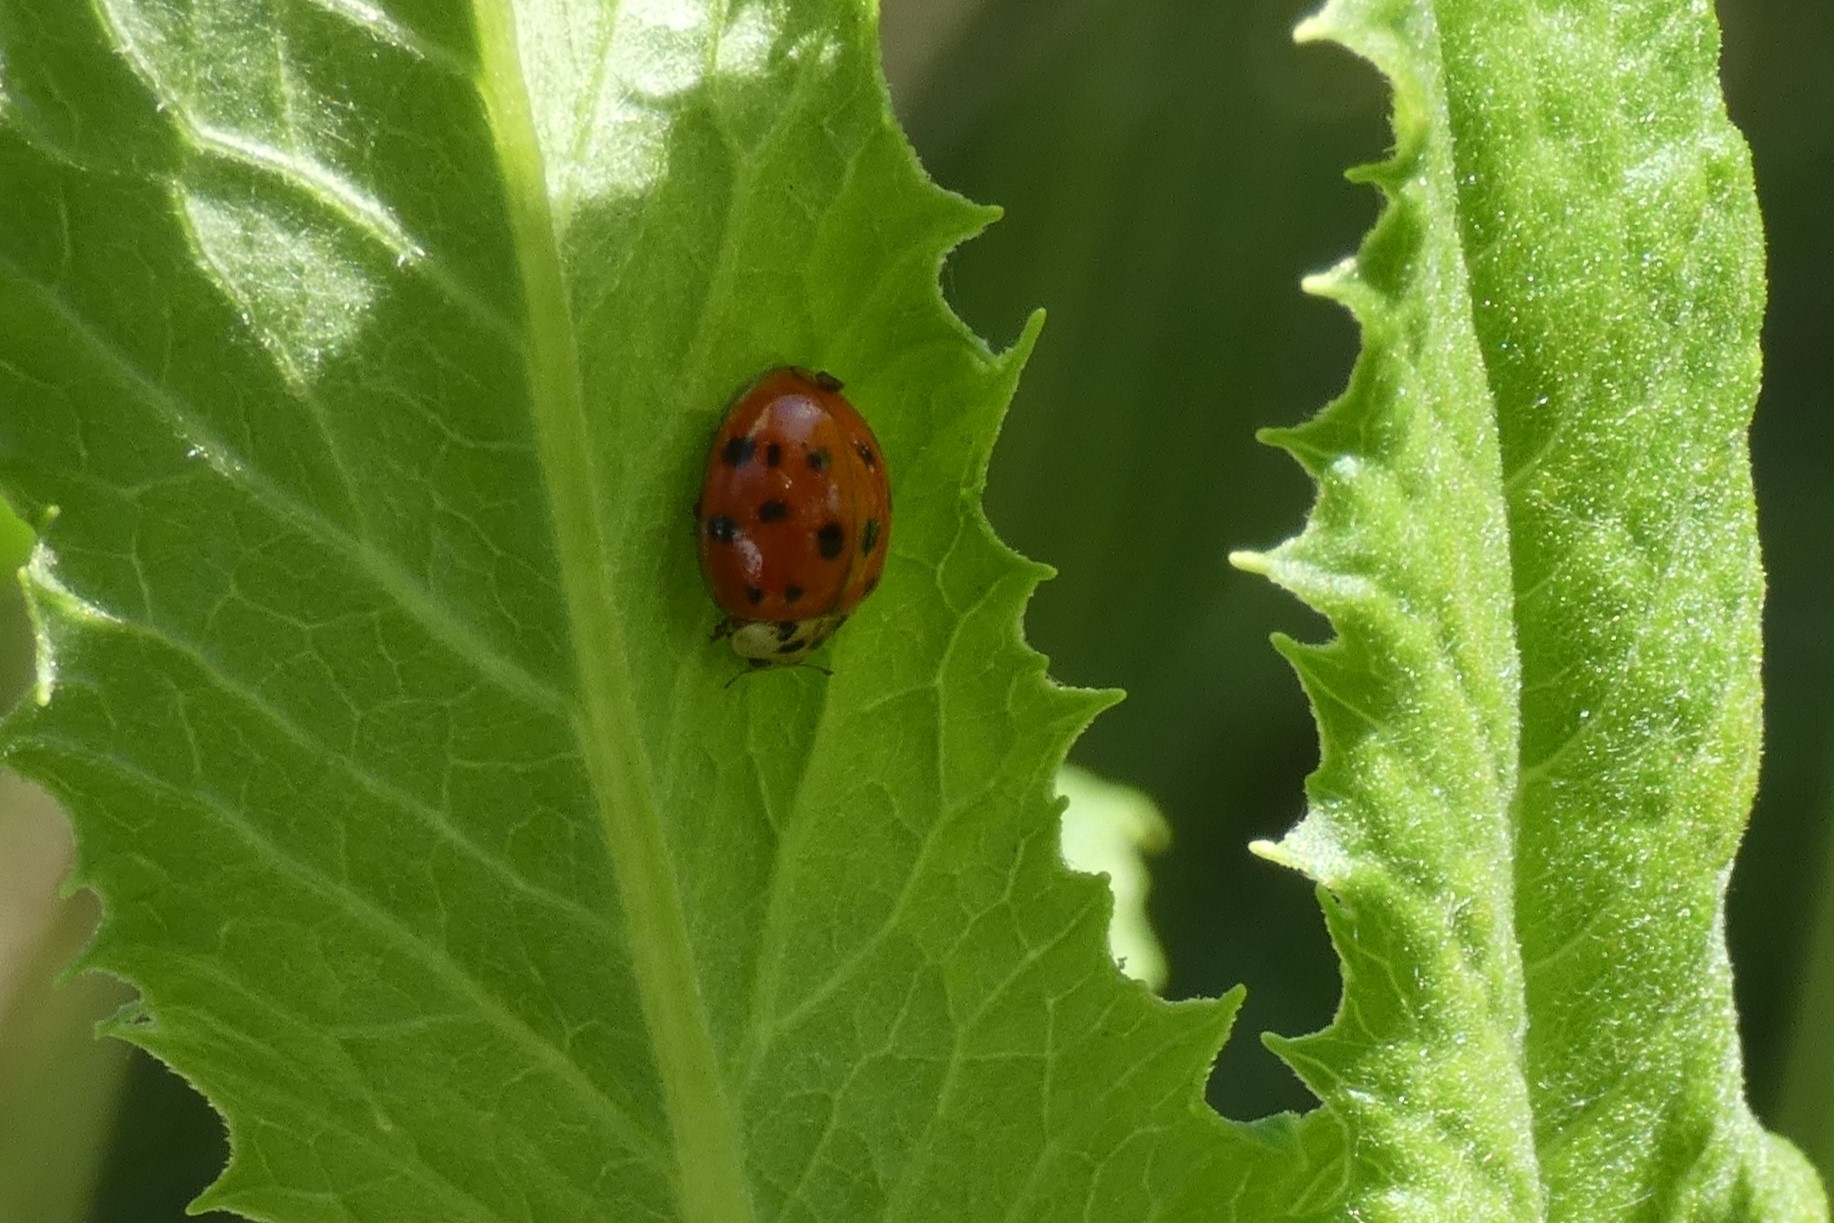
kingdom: Animalia
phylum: Arthropoda
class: Insecta
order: Coleoptera
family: Coccinellidae
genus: Harmonia
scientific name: Harmonia axyridis
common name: Harlequin ladybird
